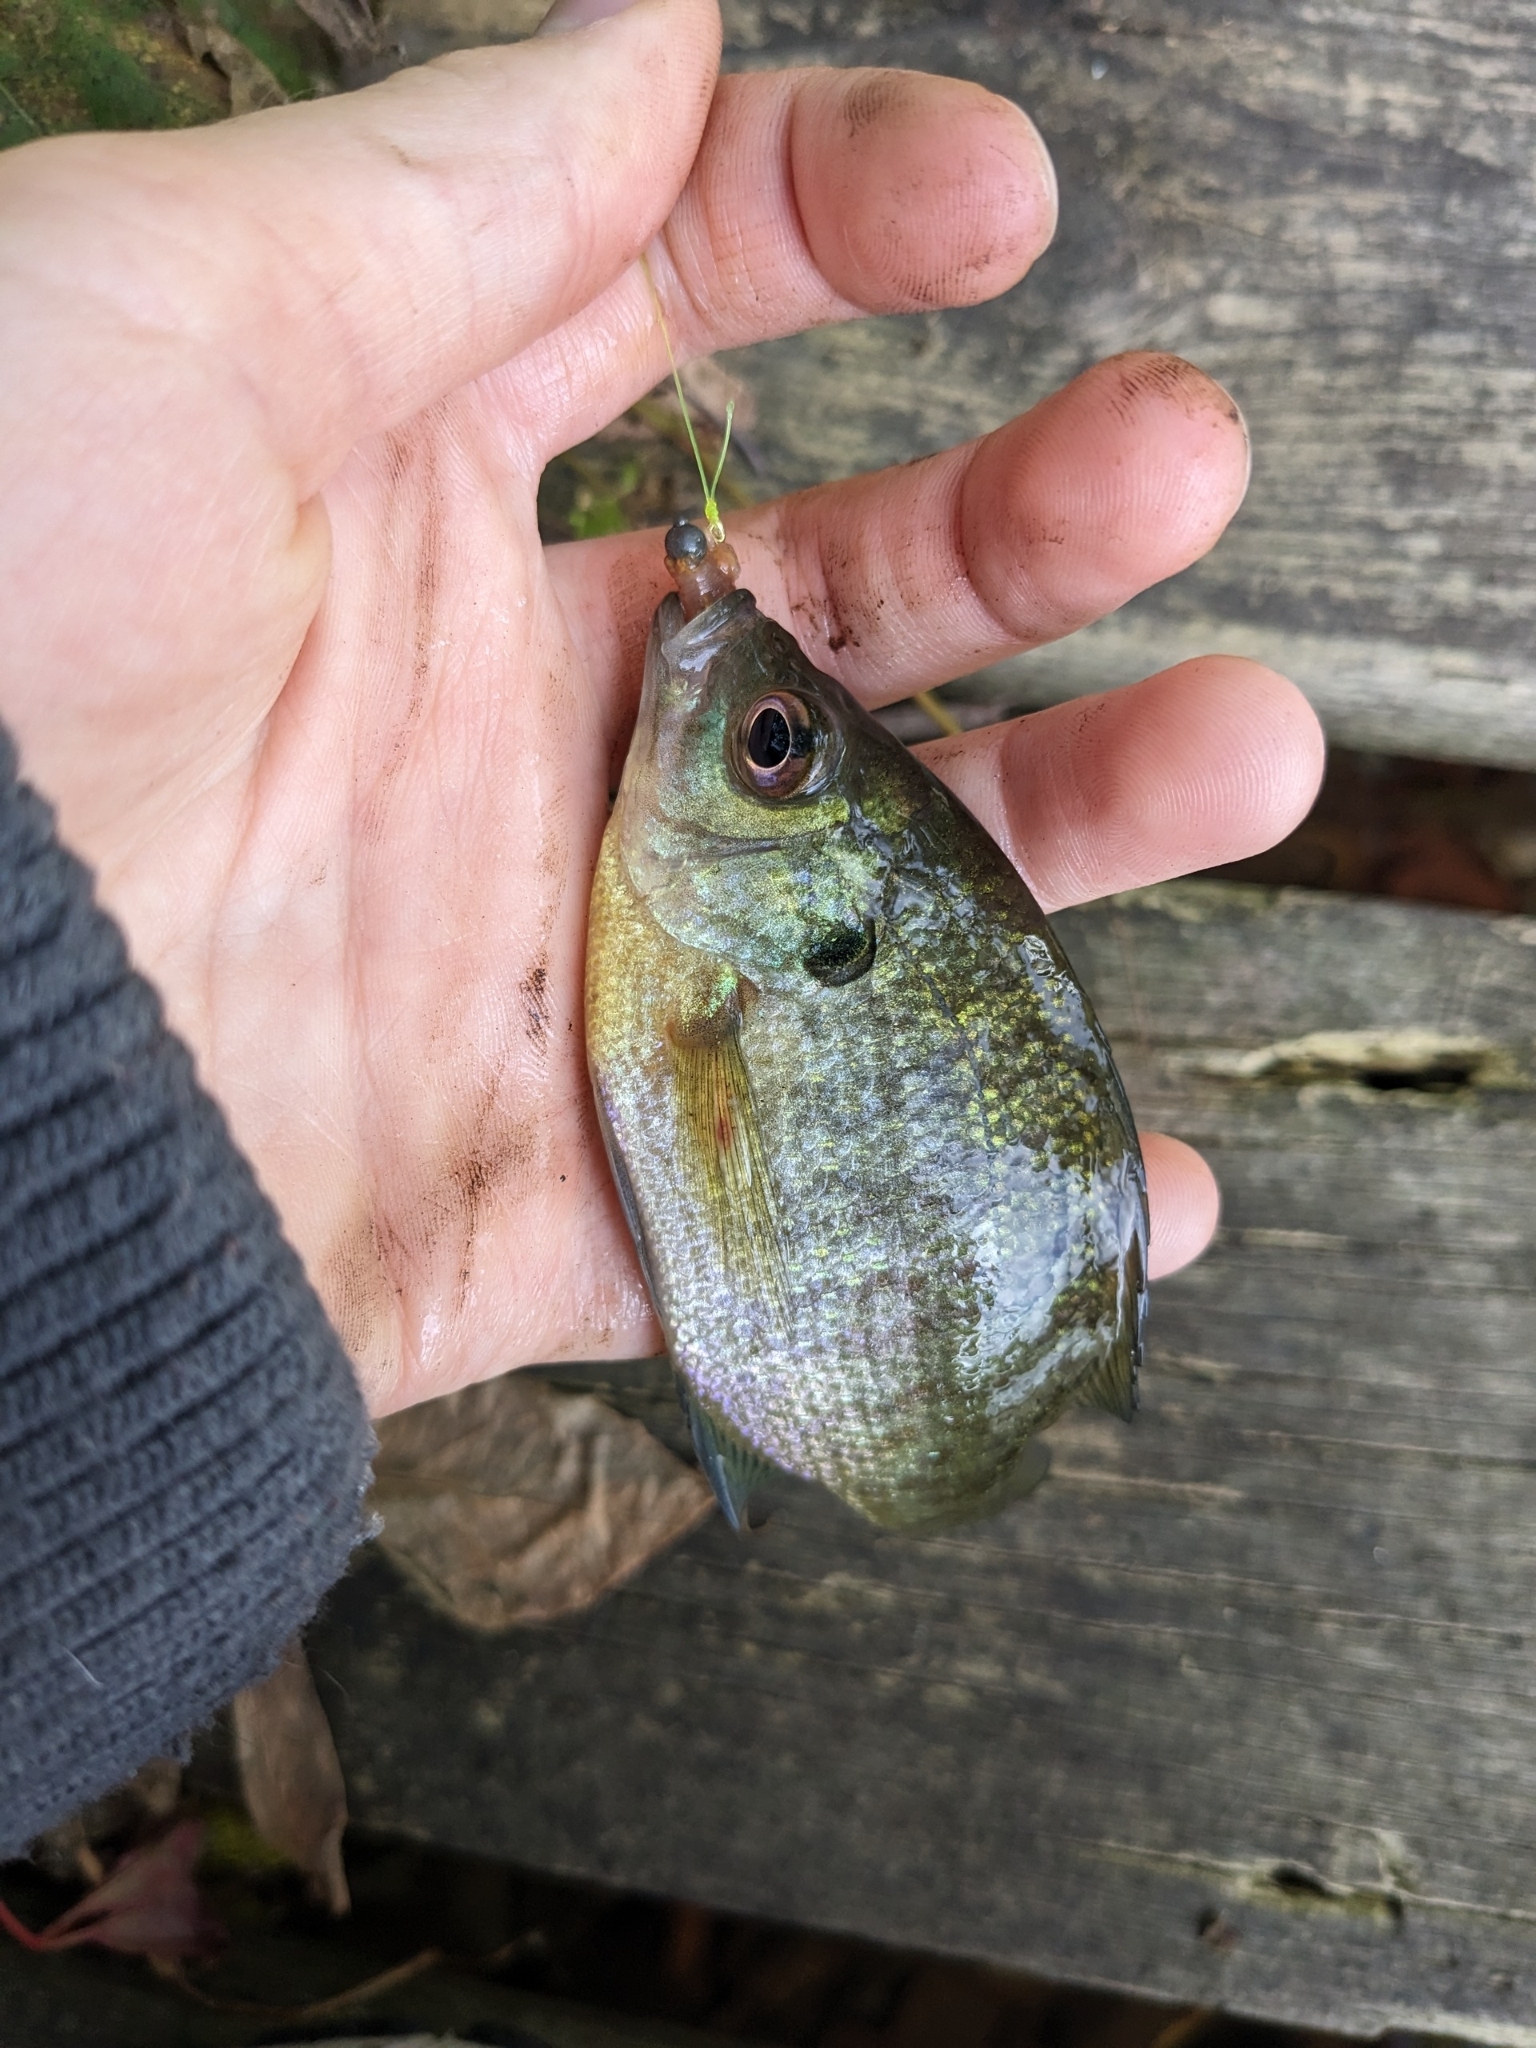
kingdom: Animalia
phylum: Chordata
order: Perciformes
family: Centrarchidae
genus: Lepomis
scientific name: Lepomis macrochirus
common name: Bluegill
